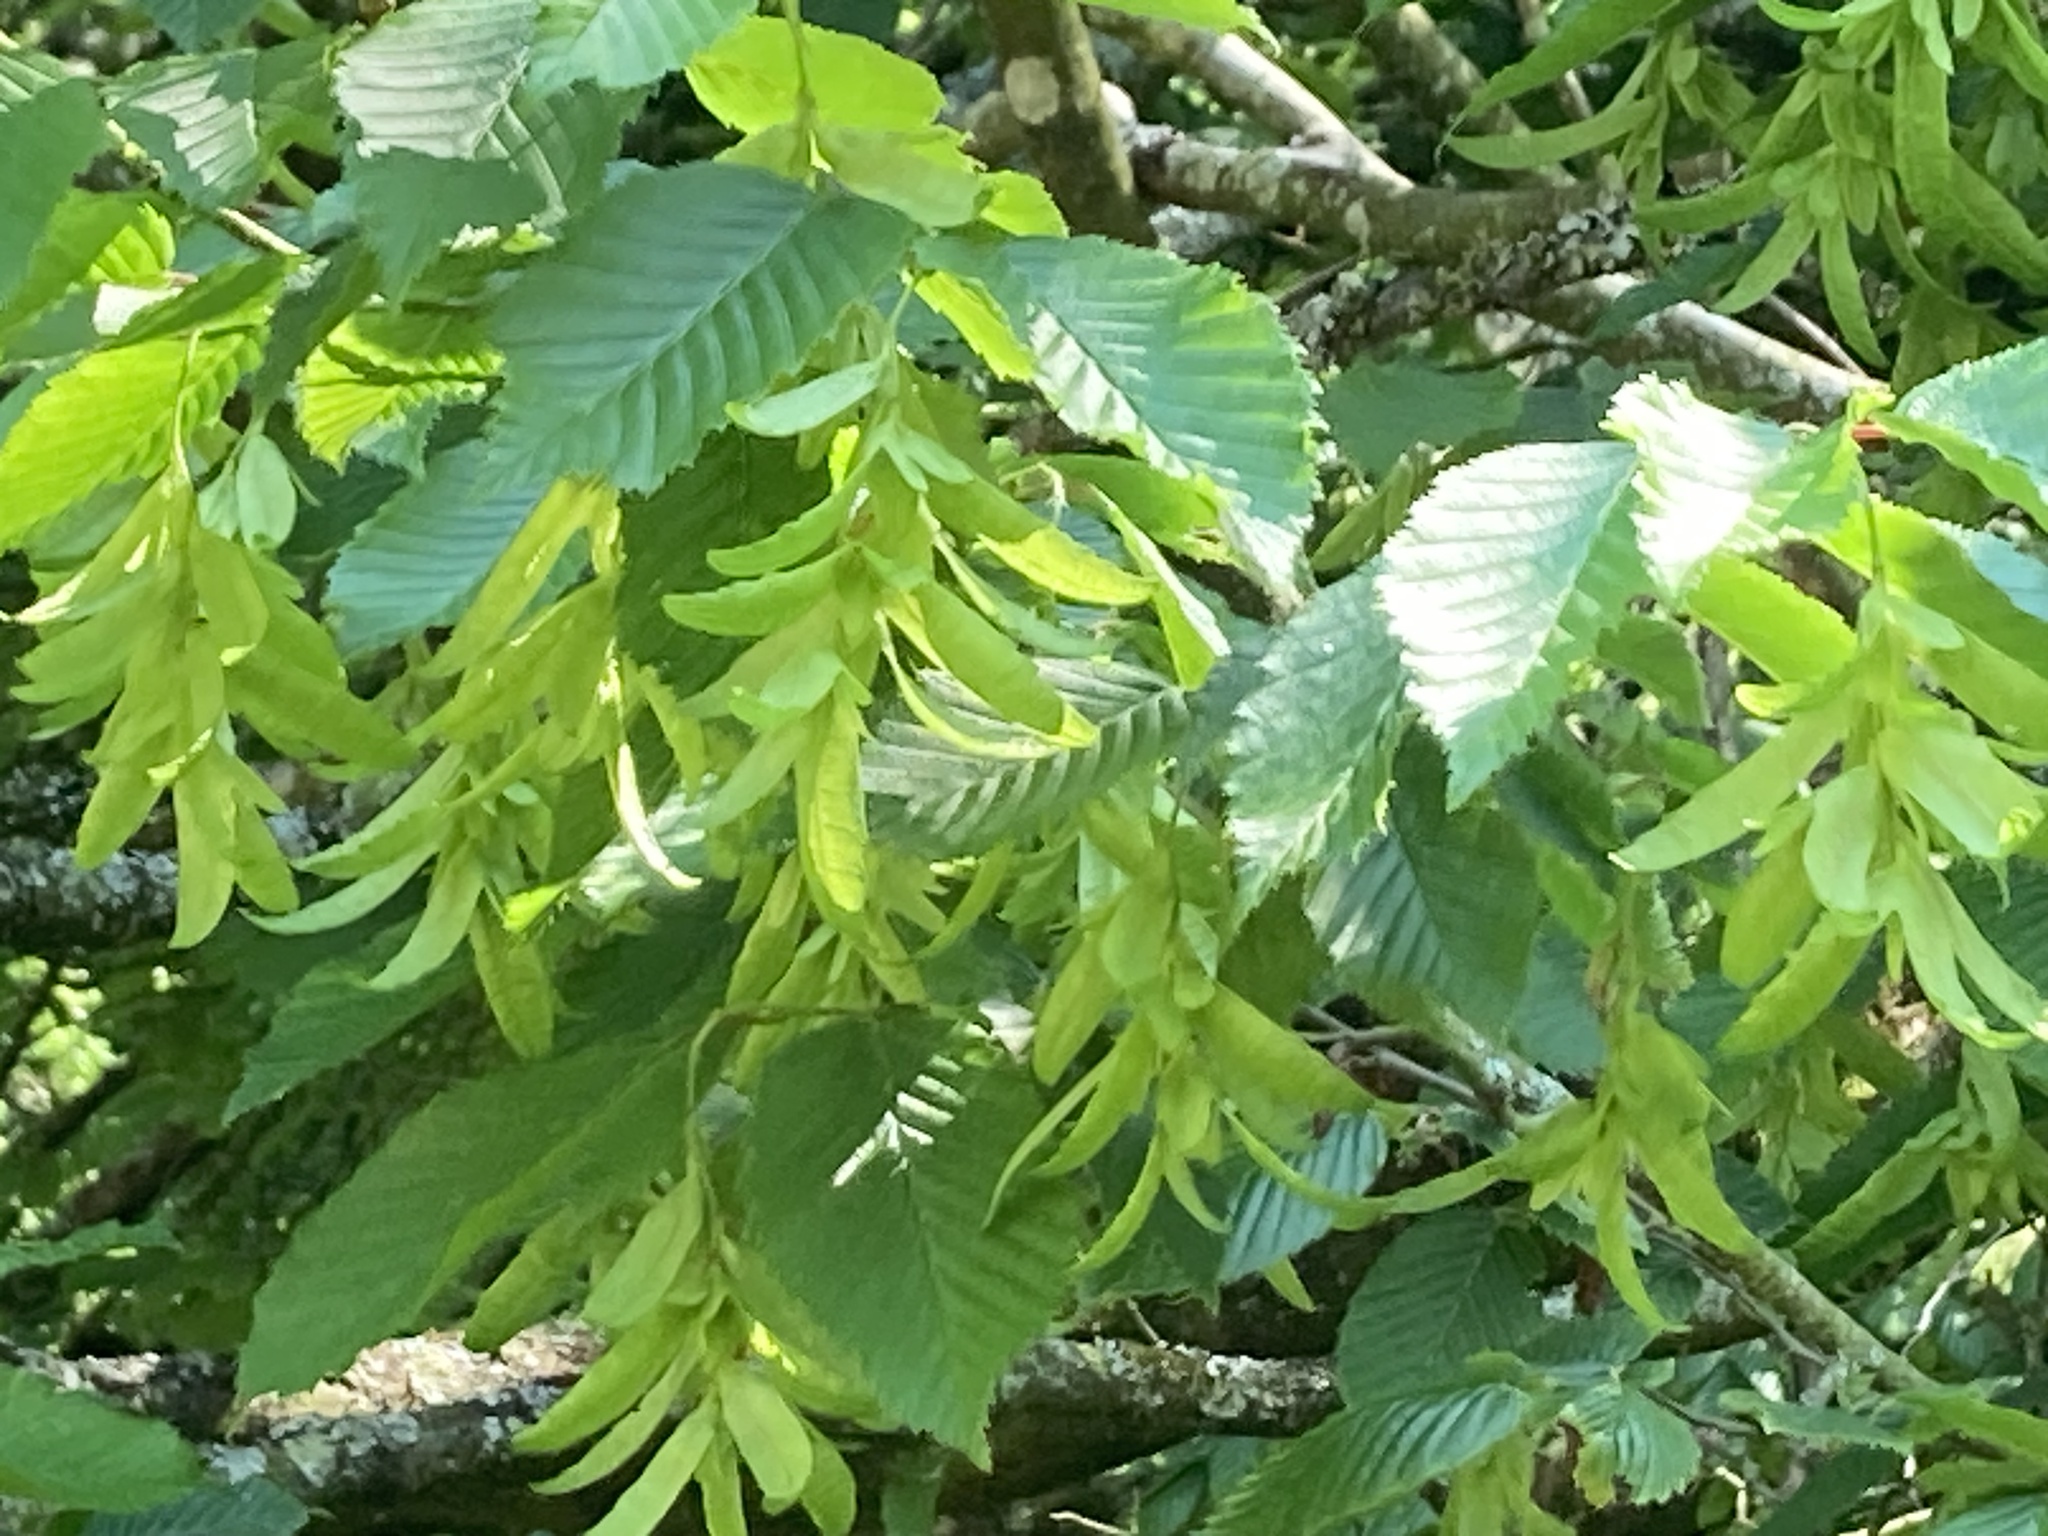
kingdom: Plantae
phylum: Tracheophyta
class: Magnoliopsida
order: Fagales
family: Betulaceae
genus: Carpinus
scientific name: Carpinus betulus
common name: Hornbeam
